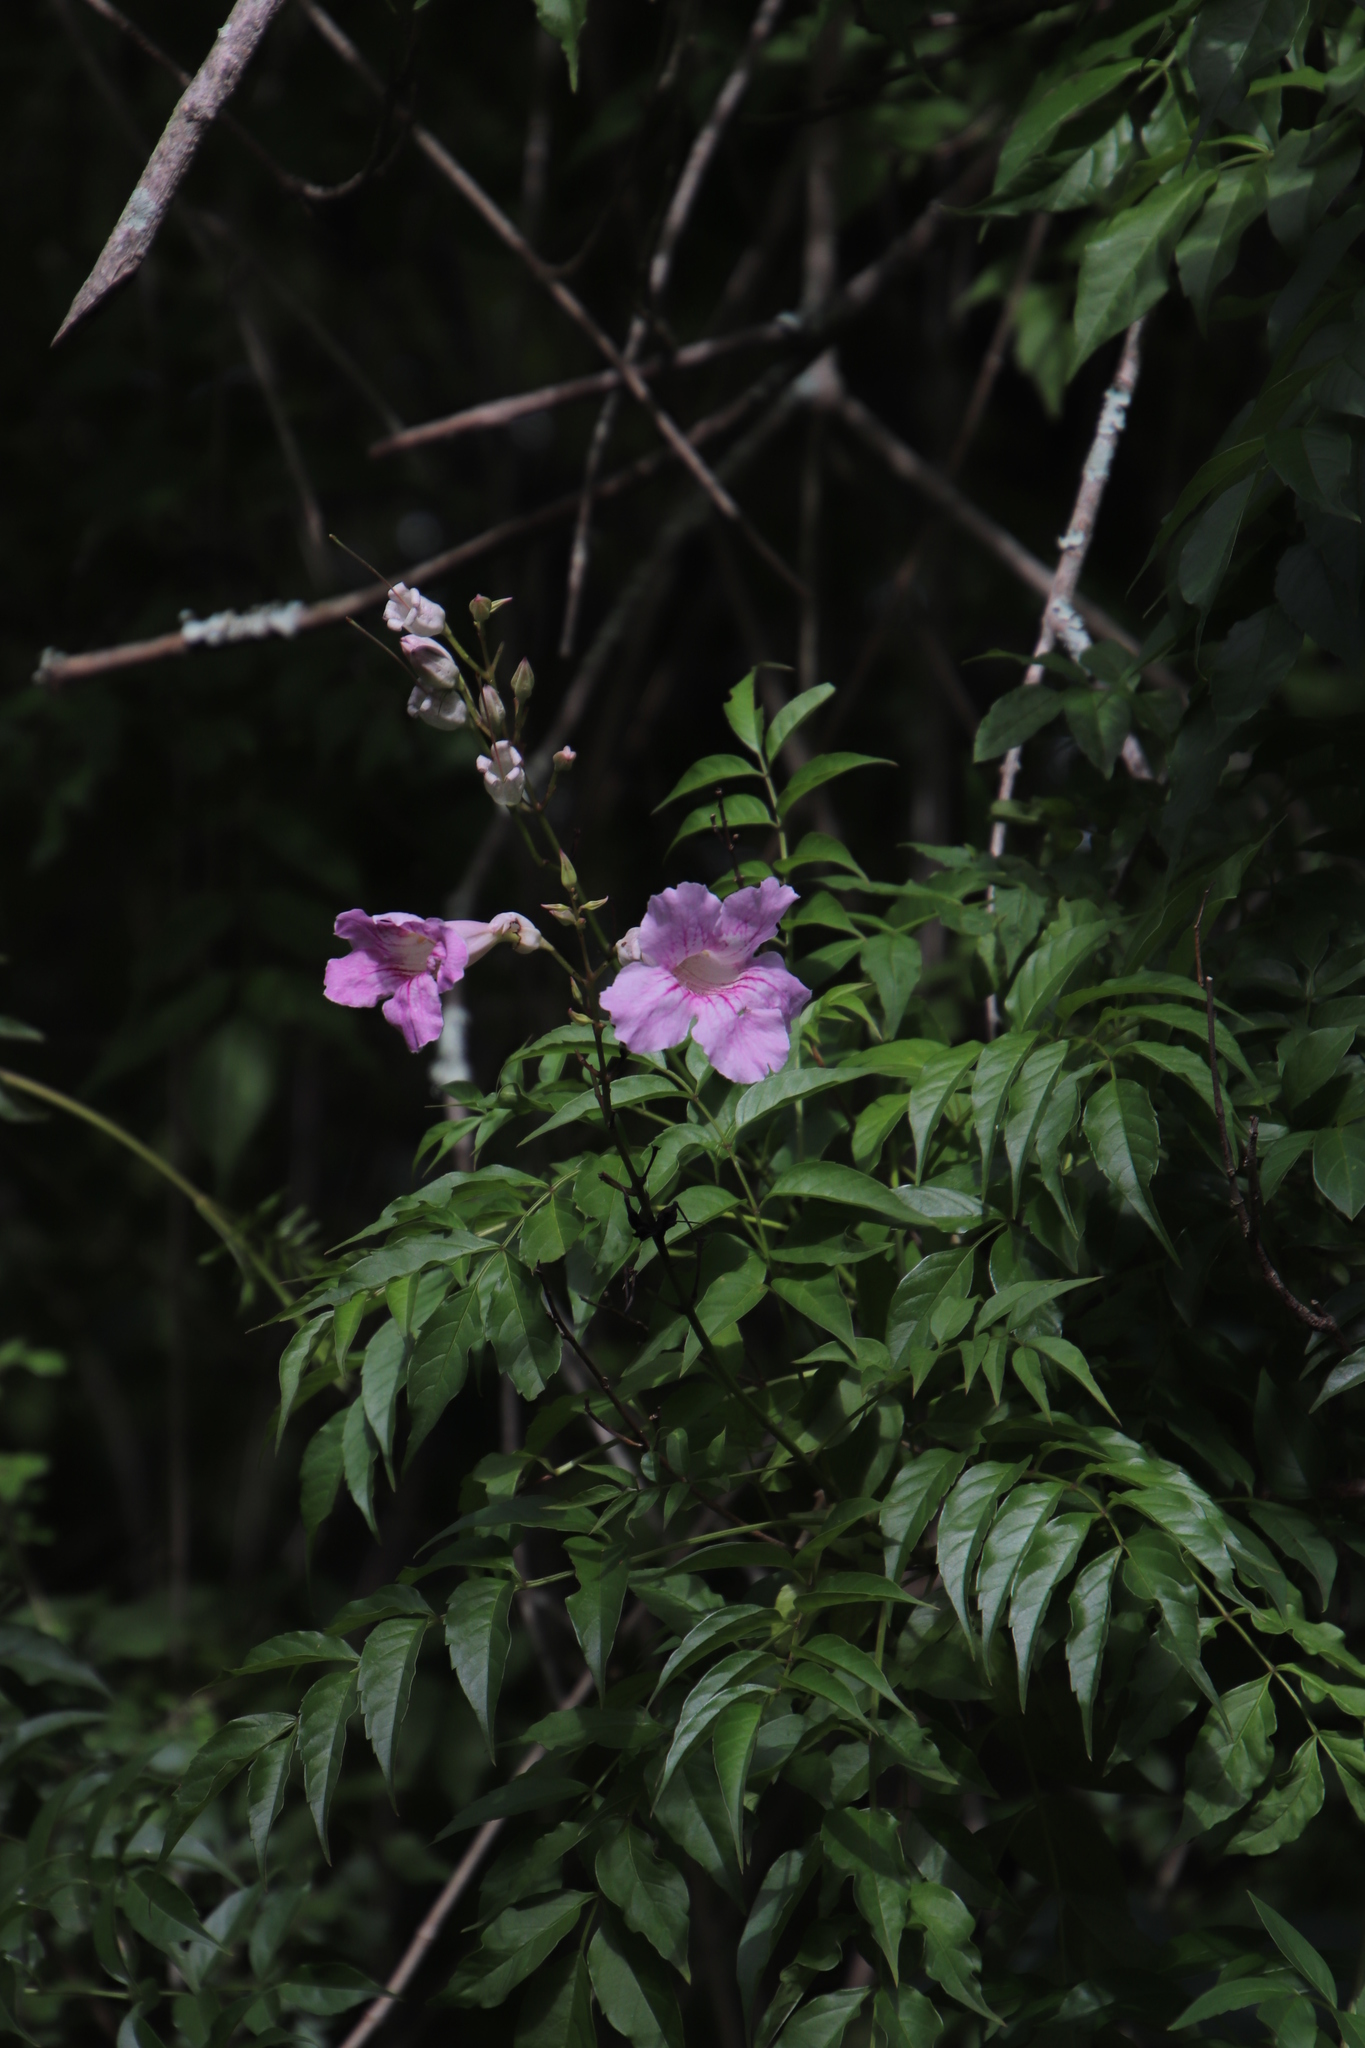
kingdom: Plantae
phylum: Tracheophyta
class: Magnoliopsida
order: Lamiales
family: Bignoniaceae
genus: Podranea
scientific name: Podranea ricasoliana
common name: Zimbabwe creeper
